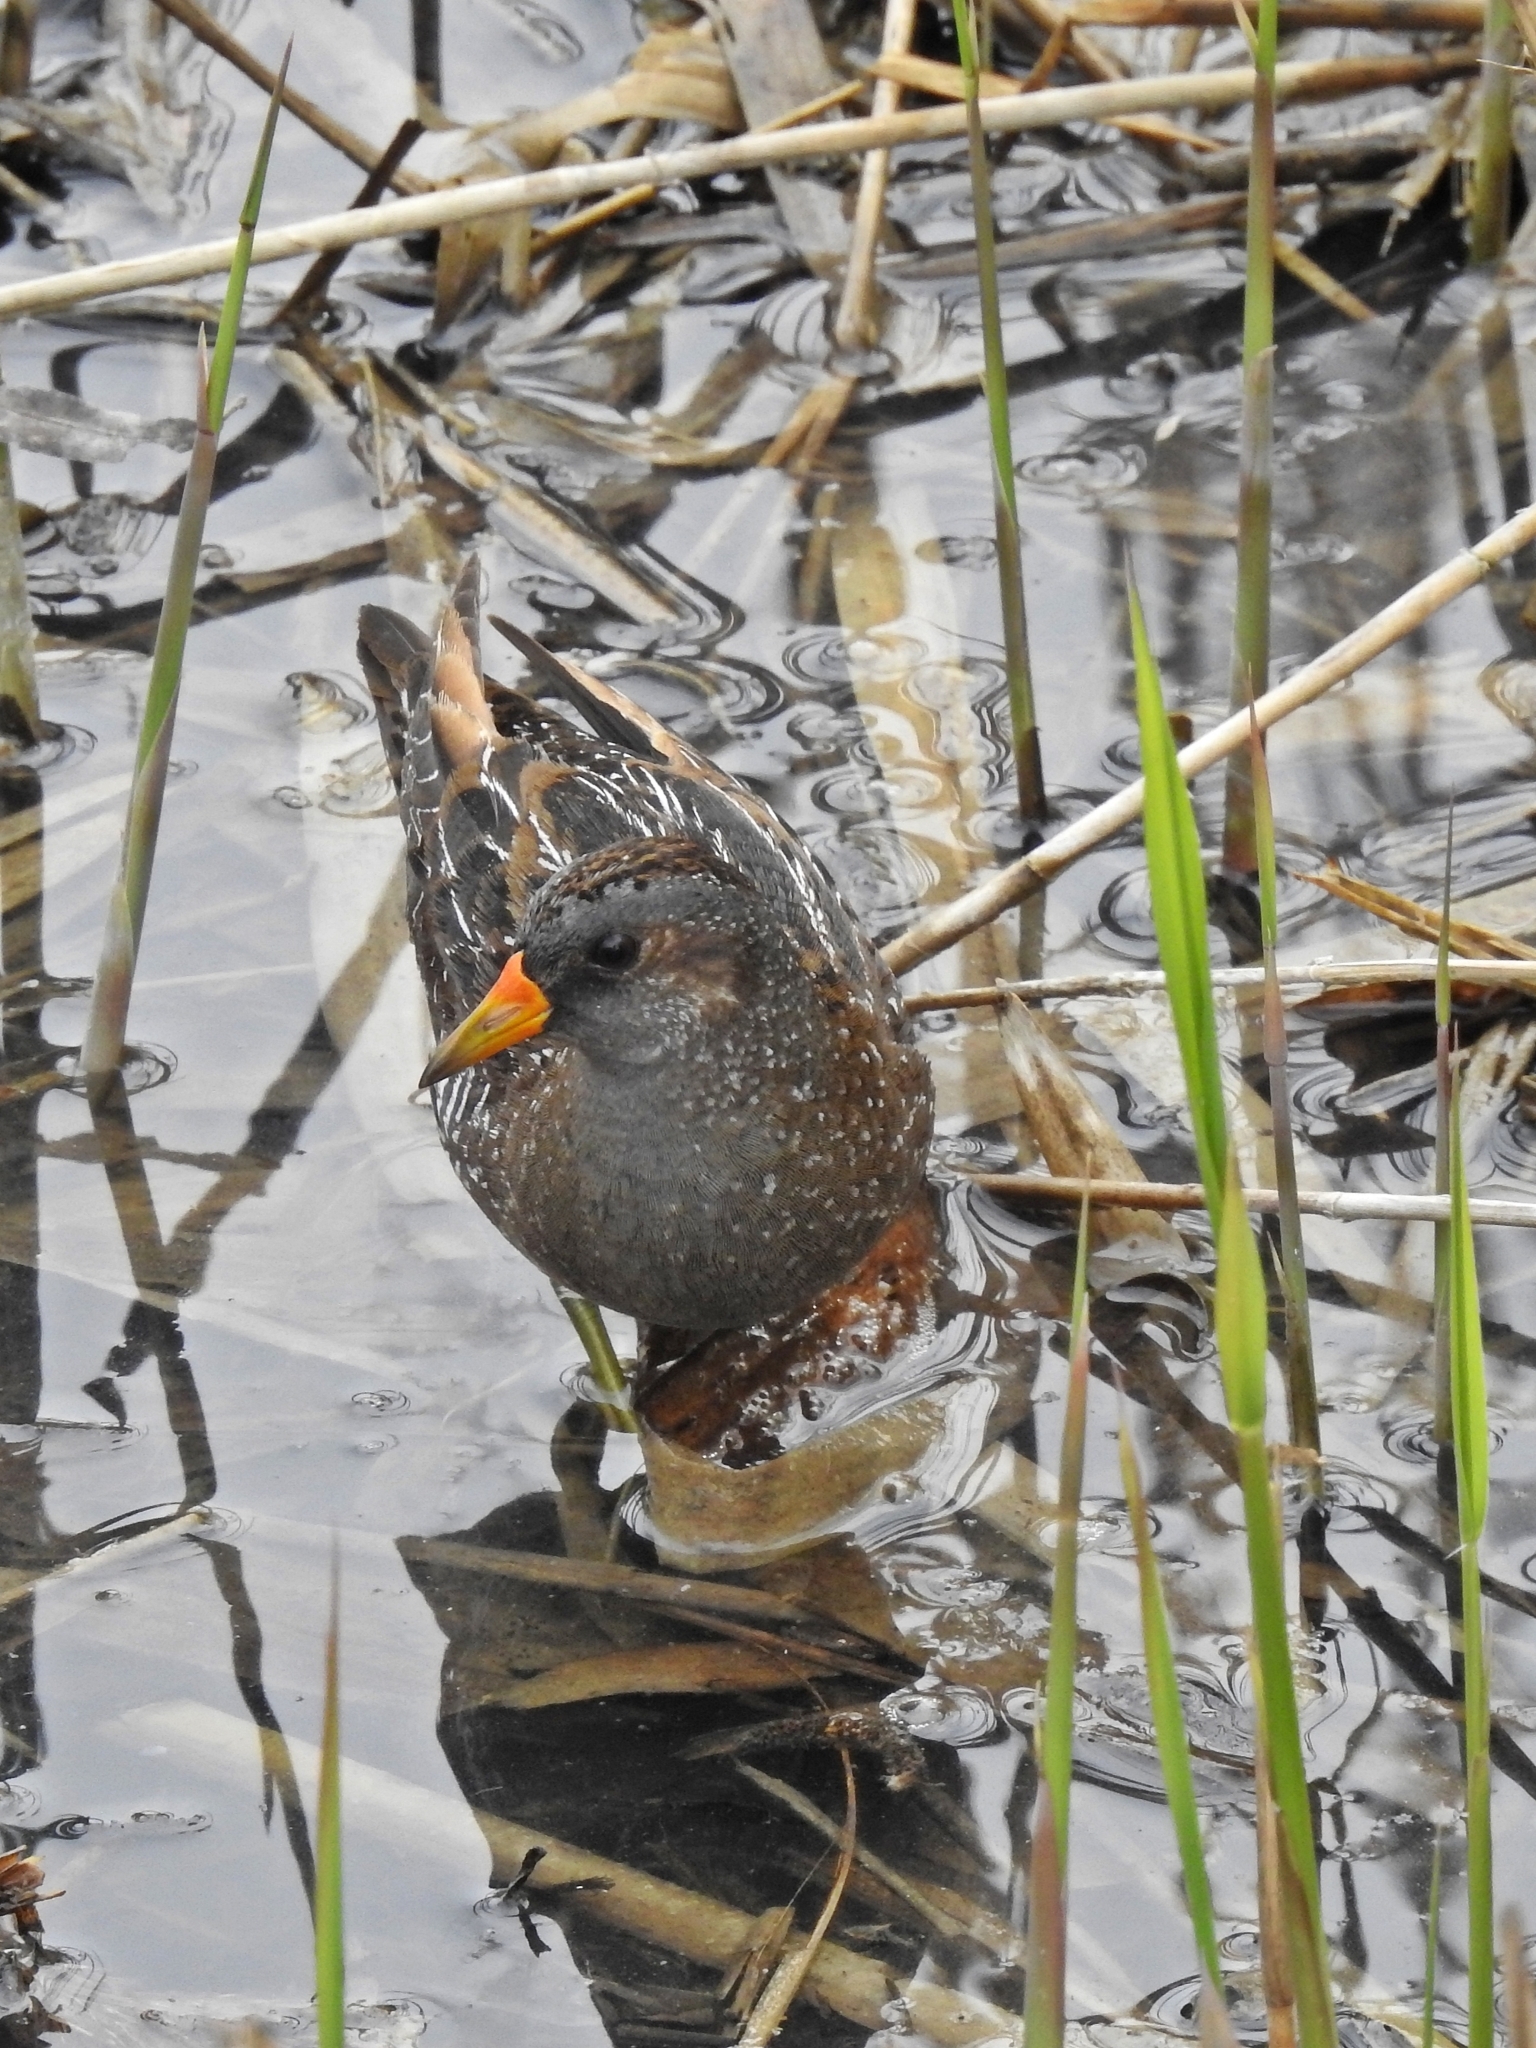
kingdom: Animalia
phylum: Chordata
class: Aves
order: Gruiformes
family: Rallidae
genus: Porzana
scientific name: Porzana porzana
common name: Spotted crake
